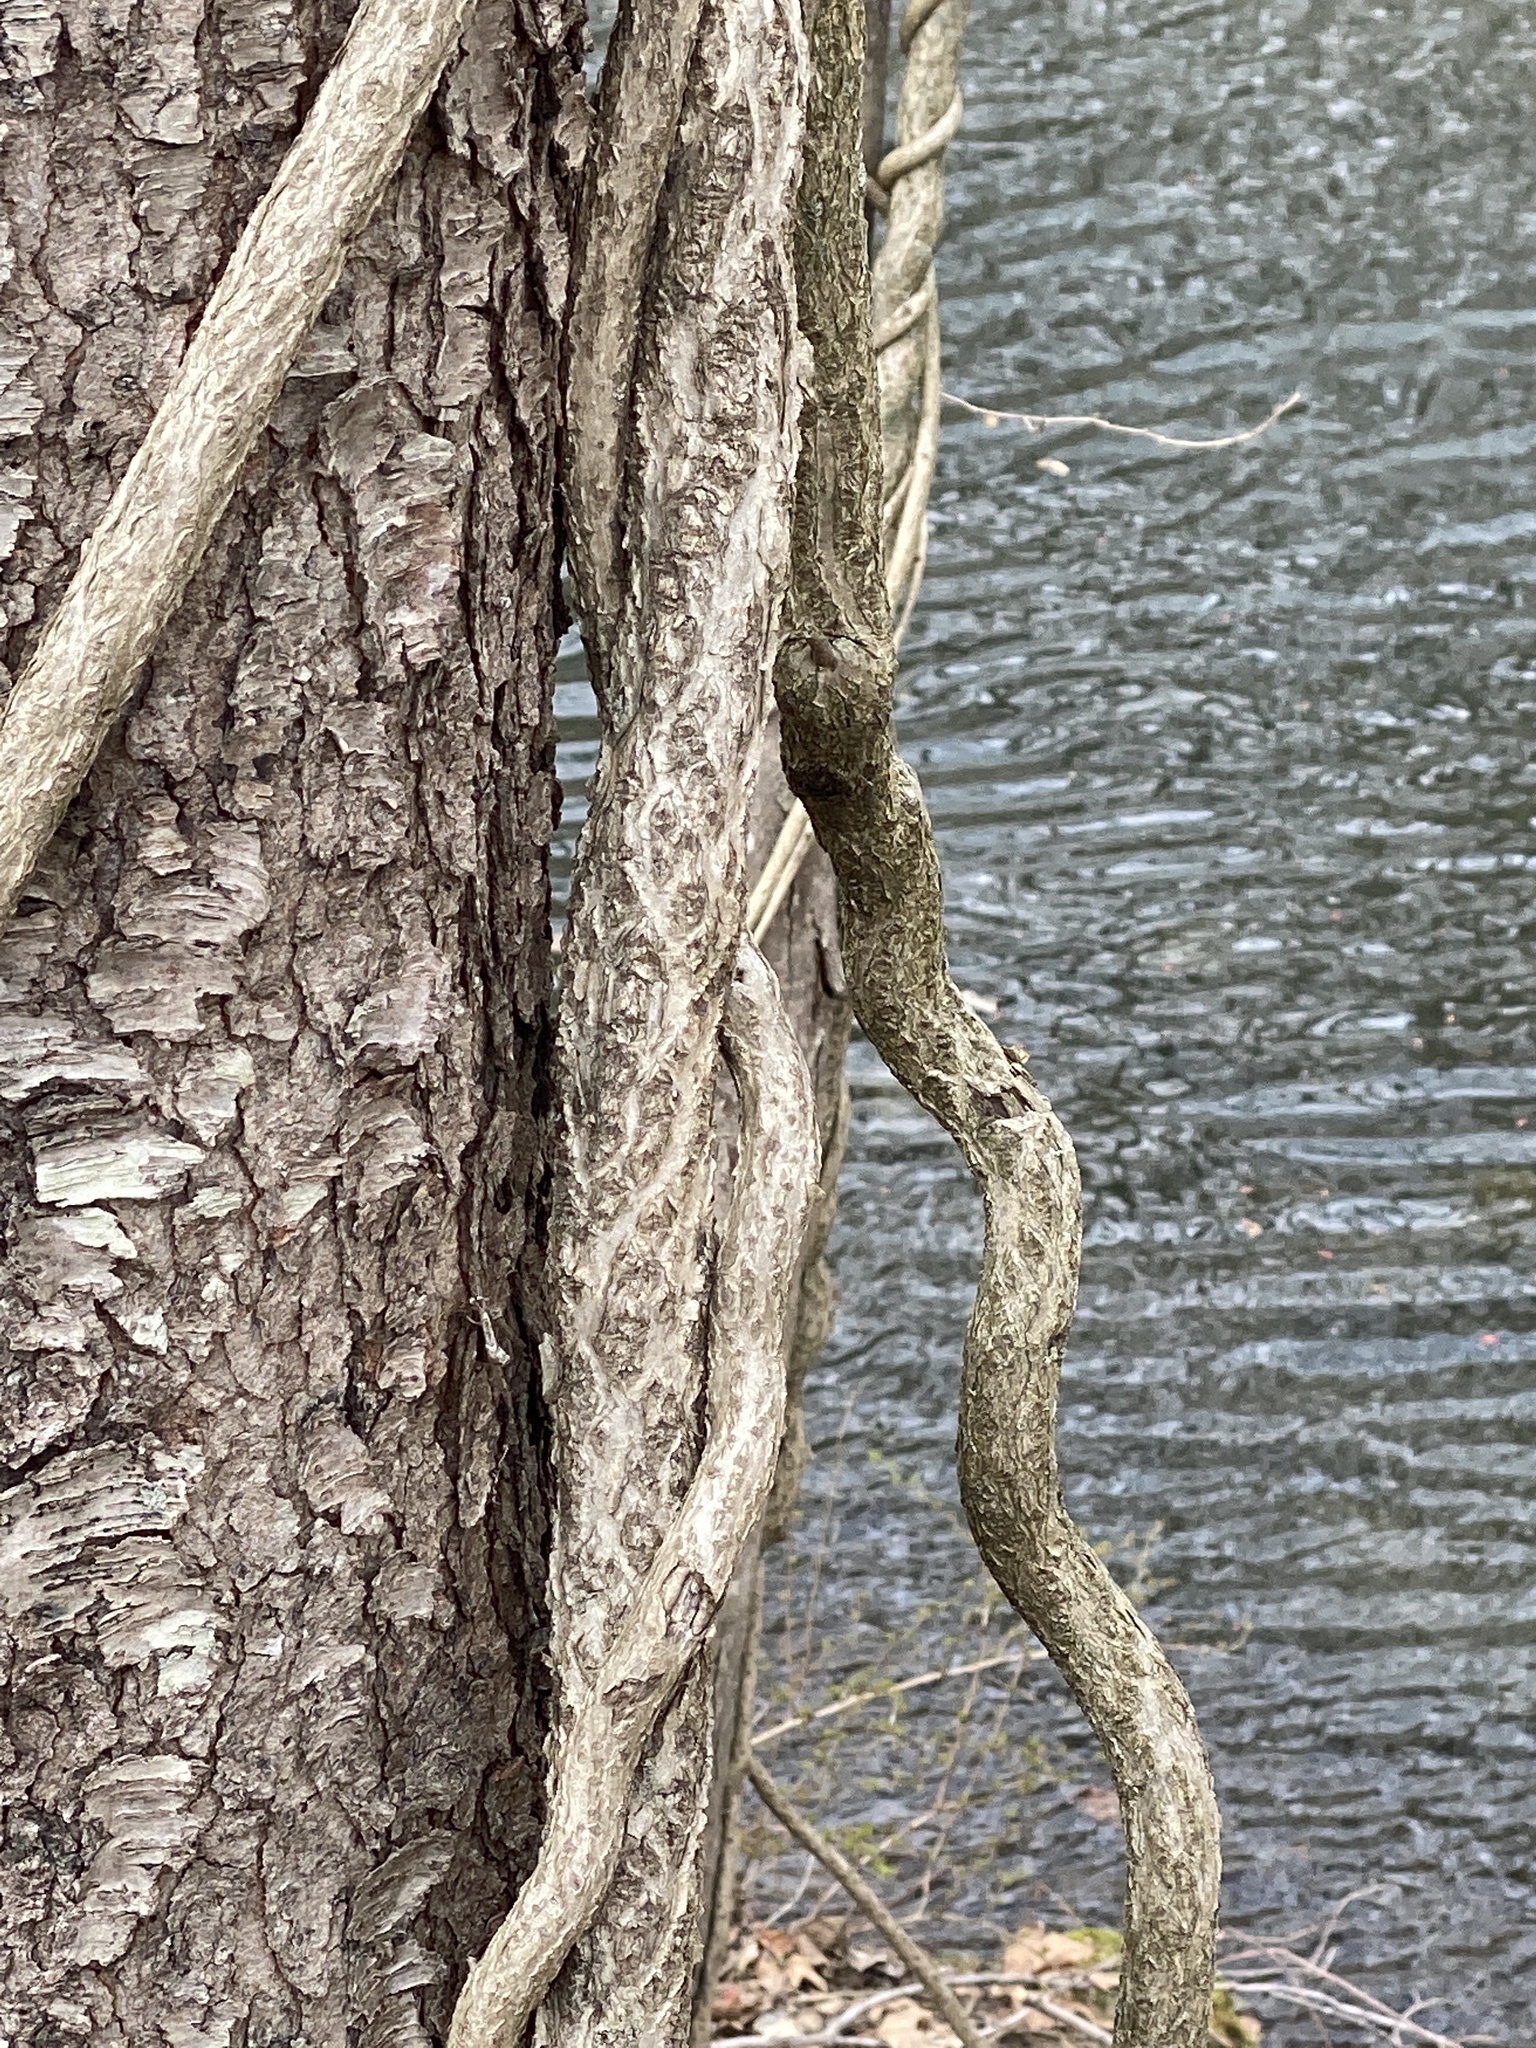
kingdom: Plantae
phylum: Tracheophyta
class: Magnoliopsida
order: Celastrales
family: Celastraceae
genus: Celastrus
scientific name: Celastrus orbiculatus
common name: Oriental bittersweet
